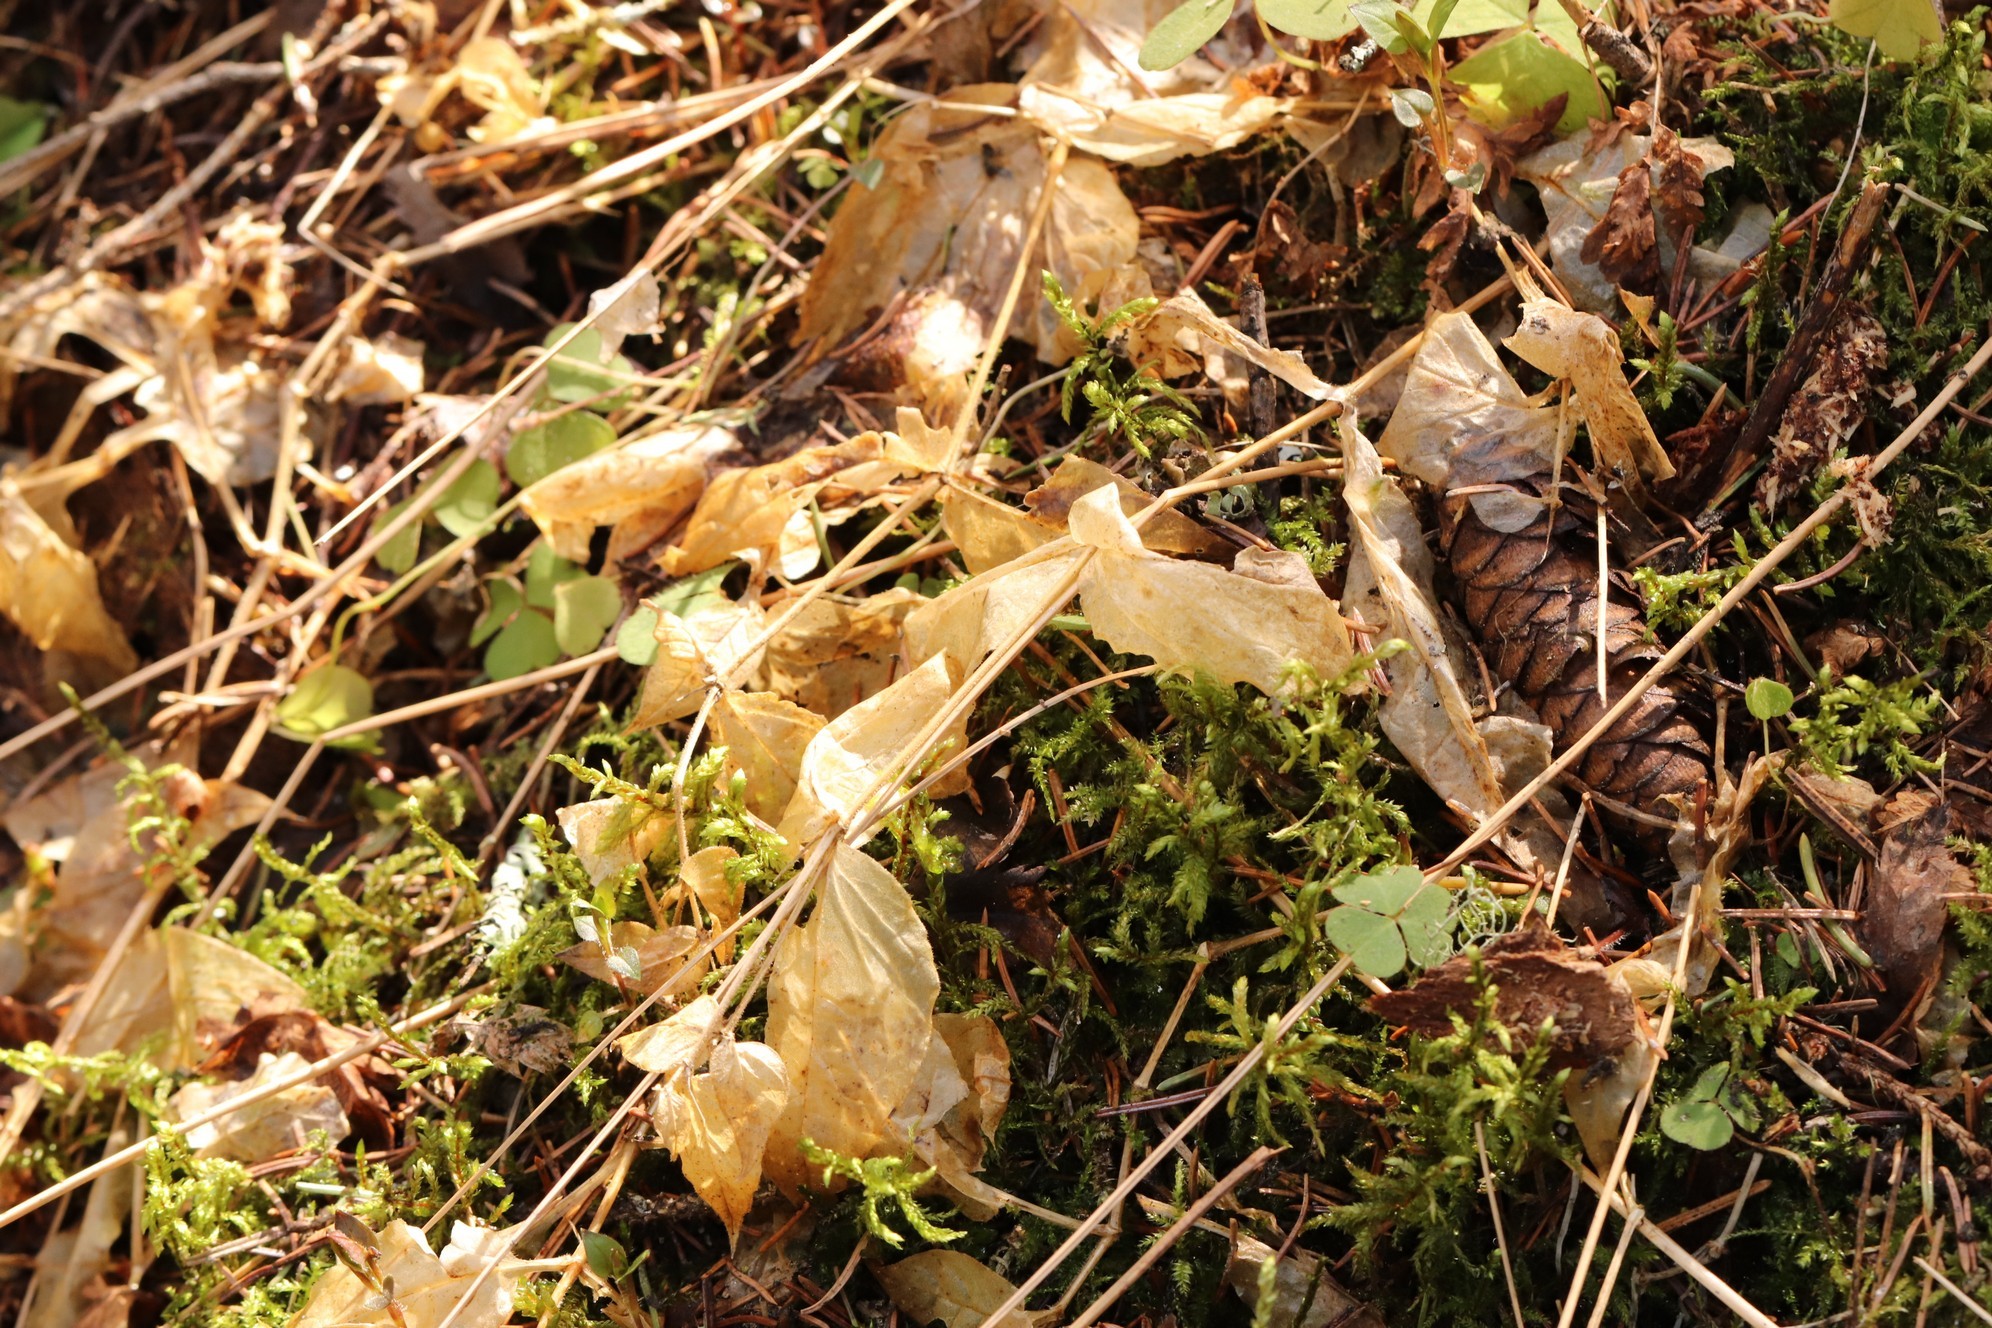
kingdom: Plantae
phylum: Tracheophyta
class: Magnoliopsida
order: Caryophyllales
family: Caryophyllaceae
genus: Stellaria
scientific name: Stellaria bungeana
